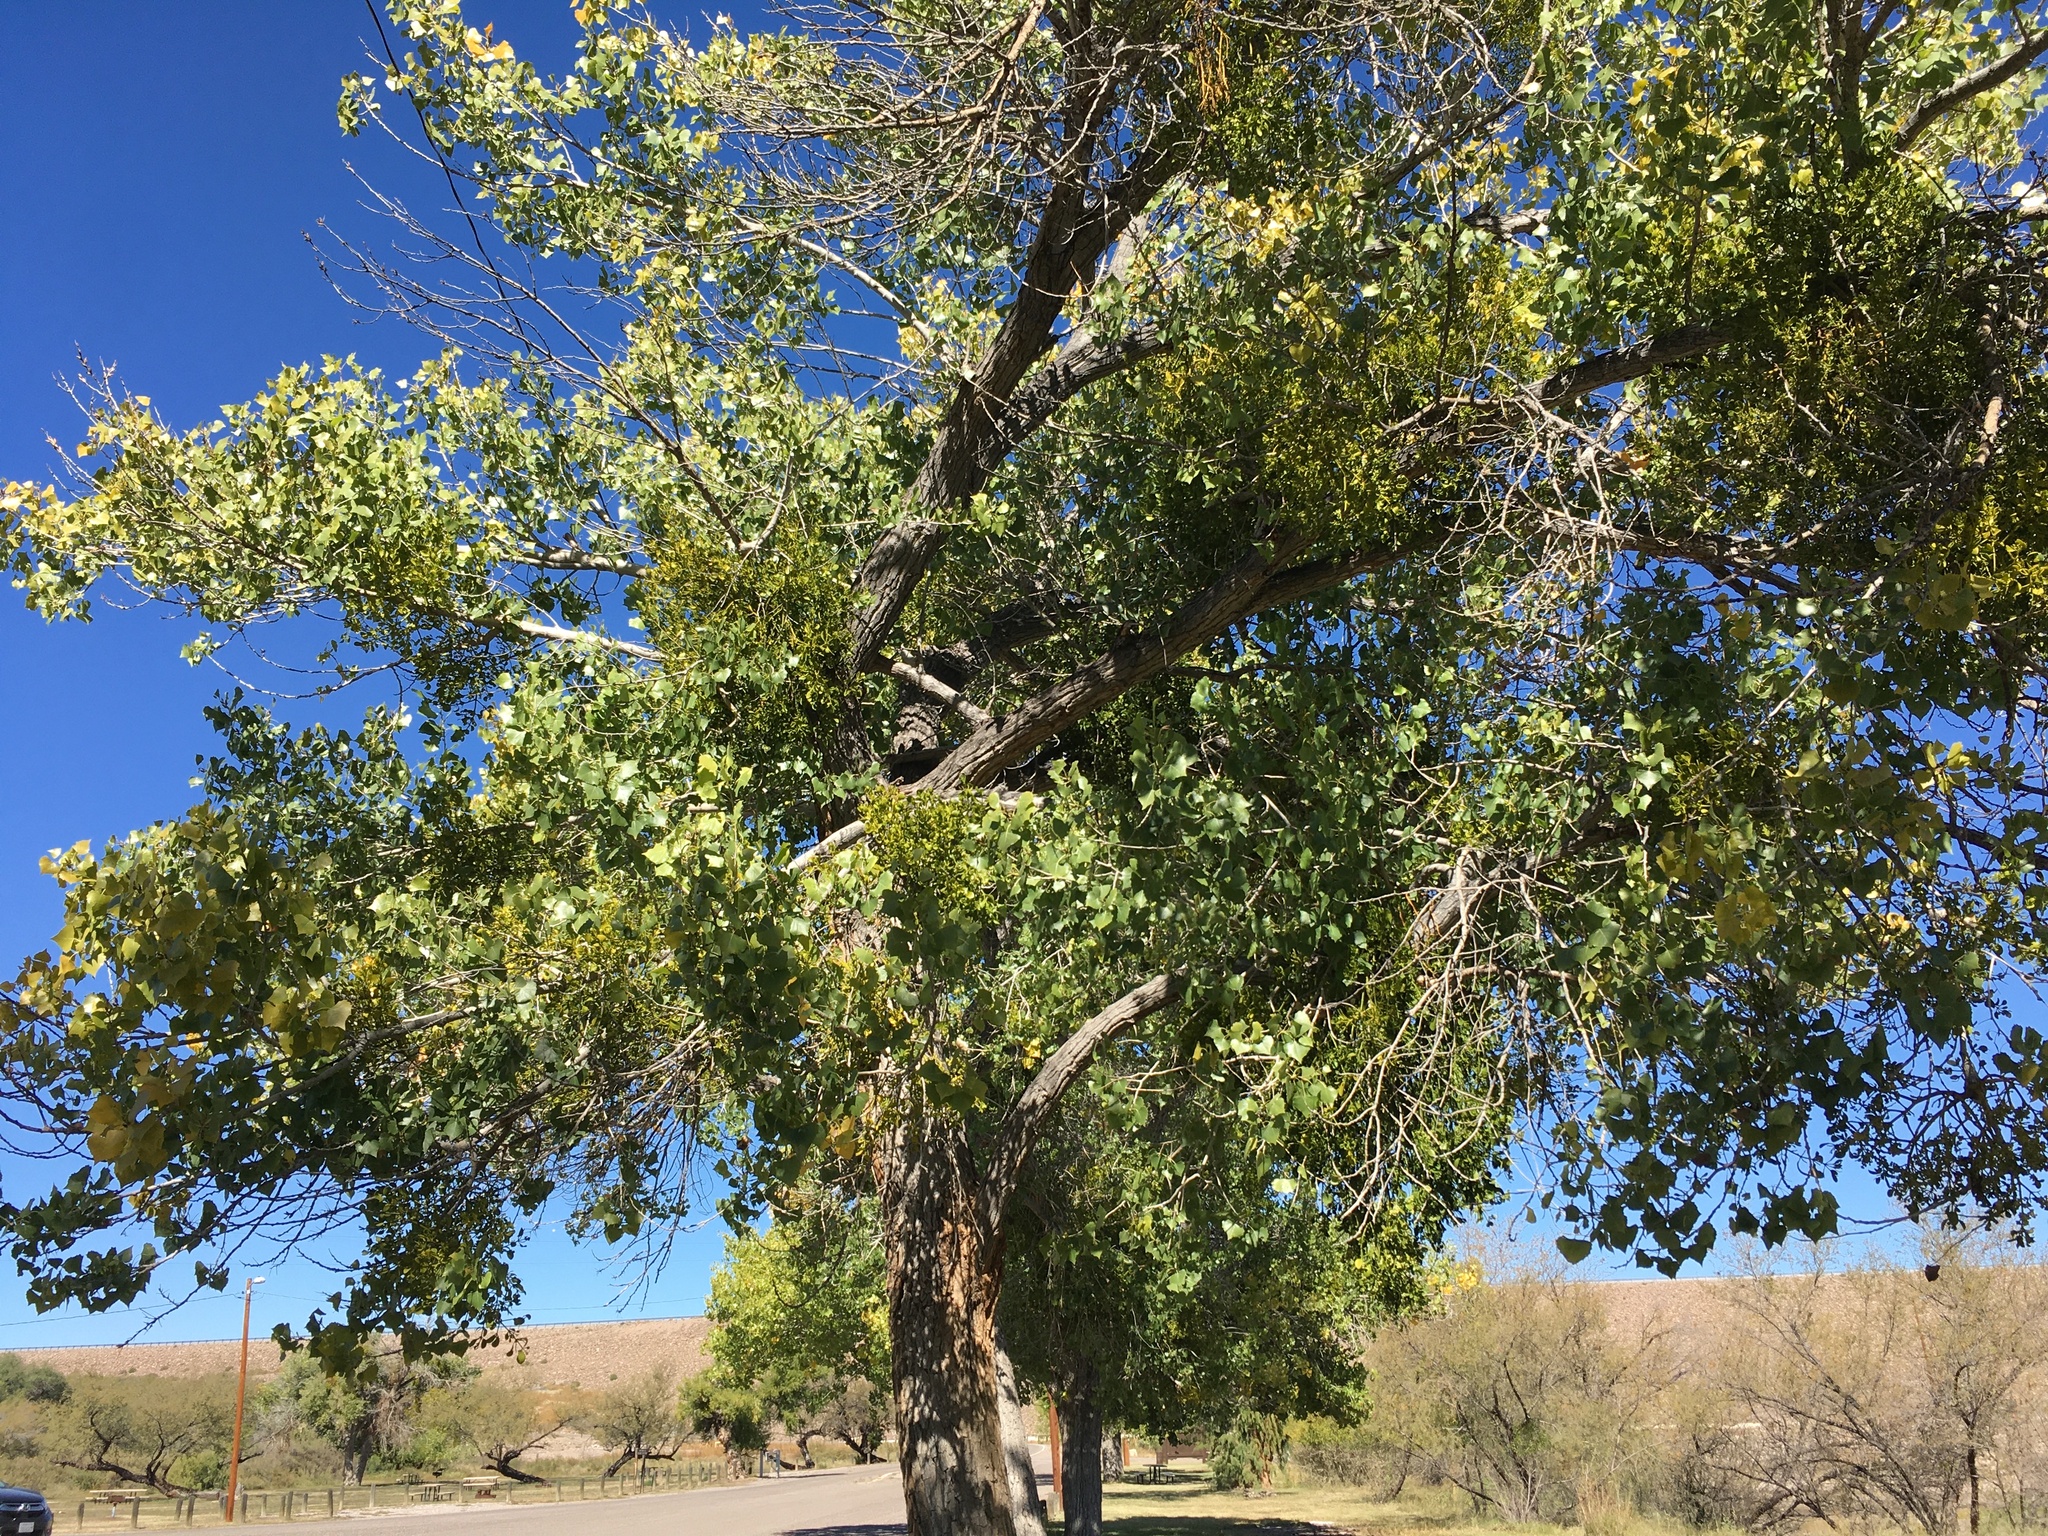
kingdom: Plantae
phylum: Tracheophyta
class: Magnoliopsida
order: Malpighiales
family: Salicaceae
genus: Populus
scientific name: Populus fremontii
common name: Fremont's cottonwood
